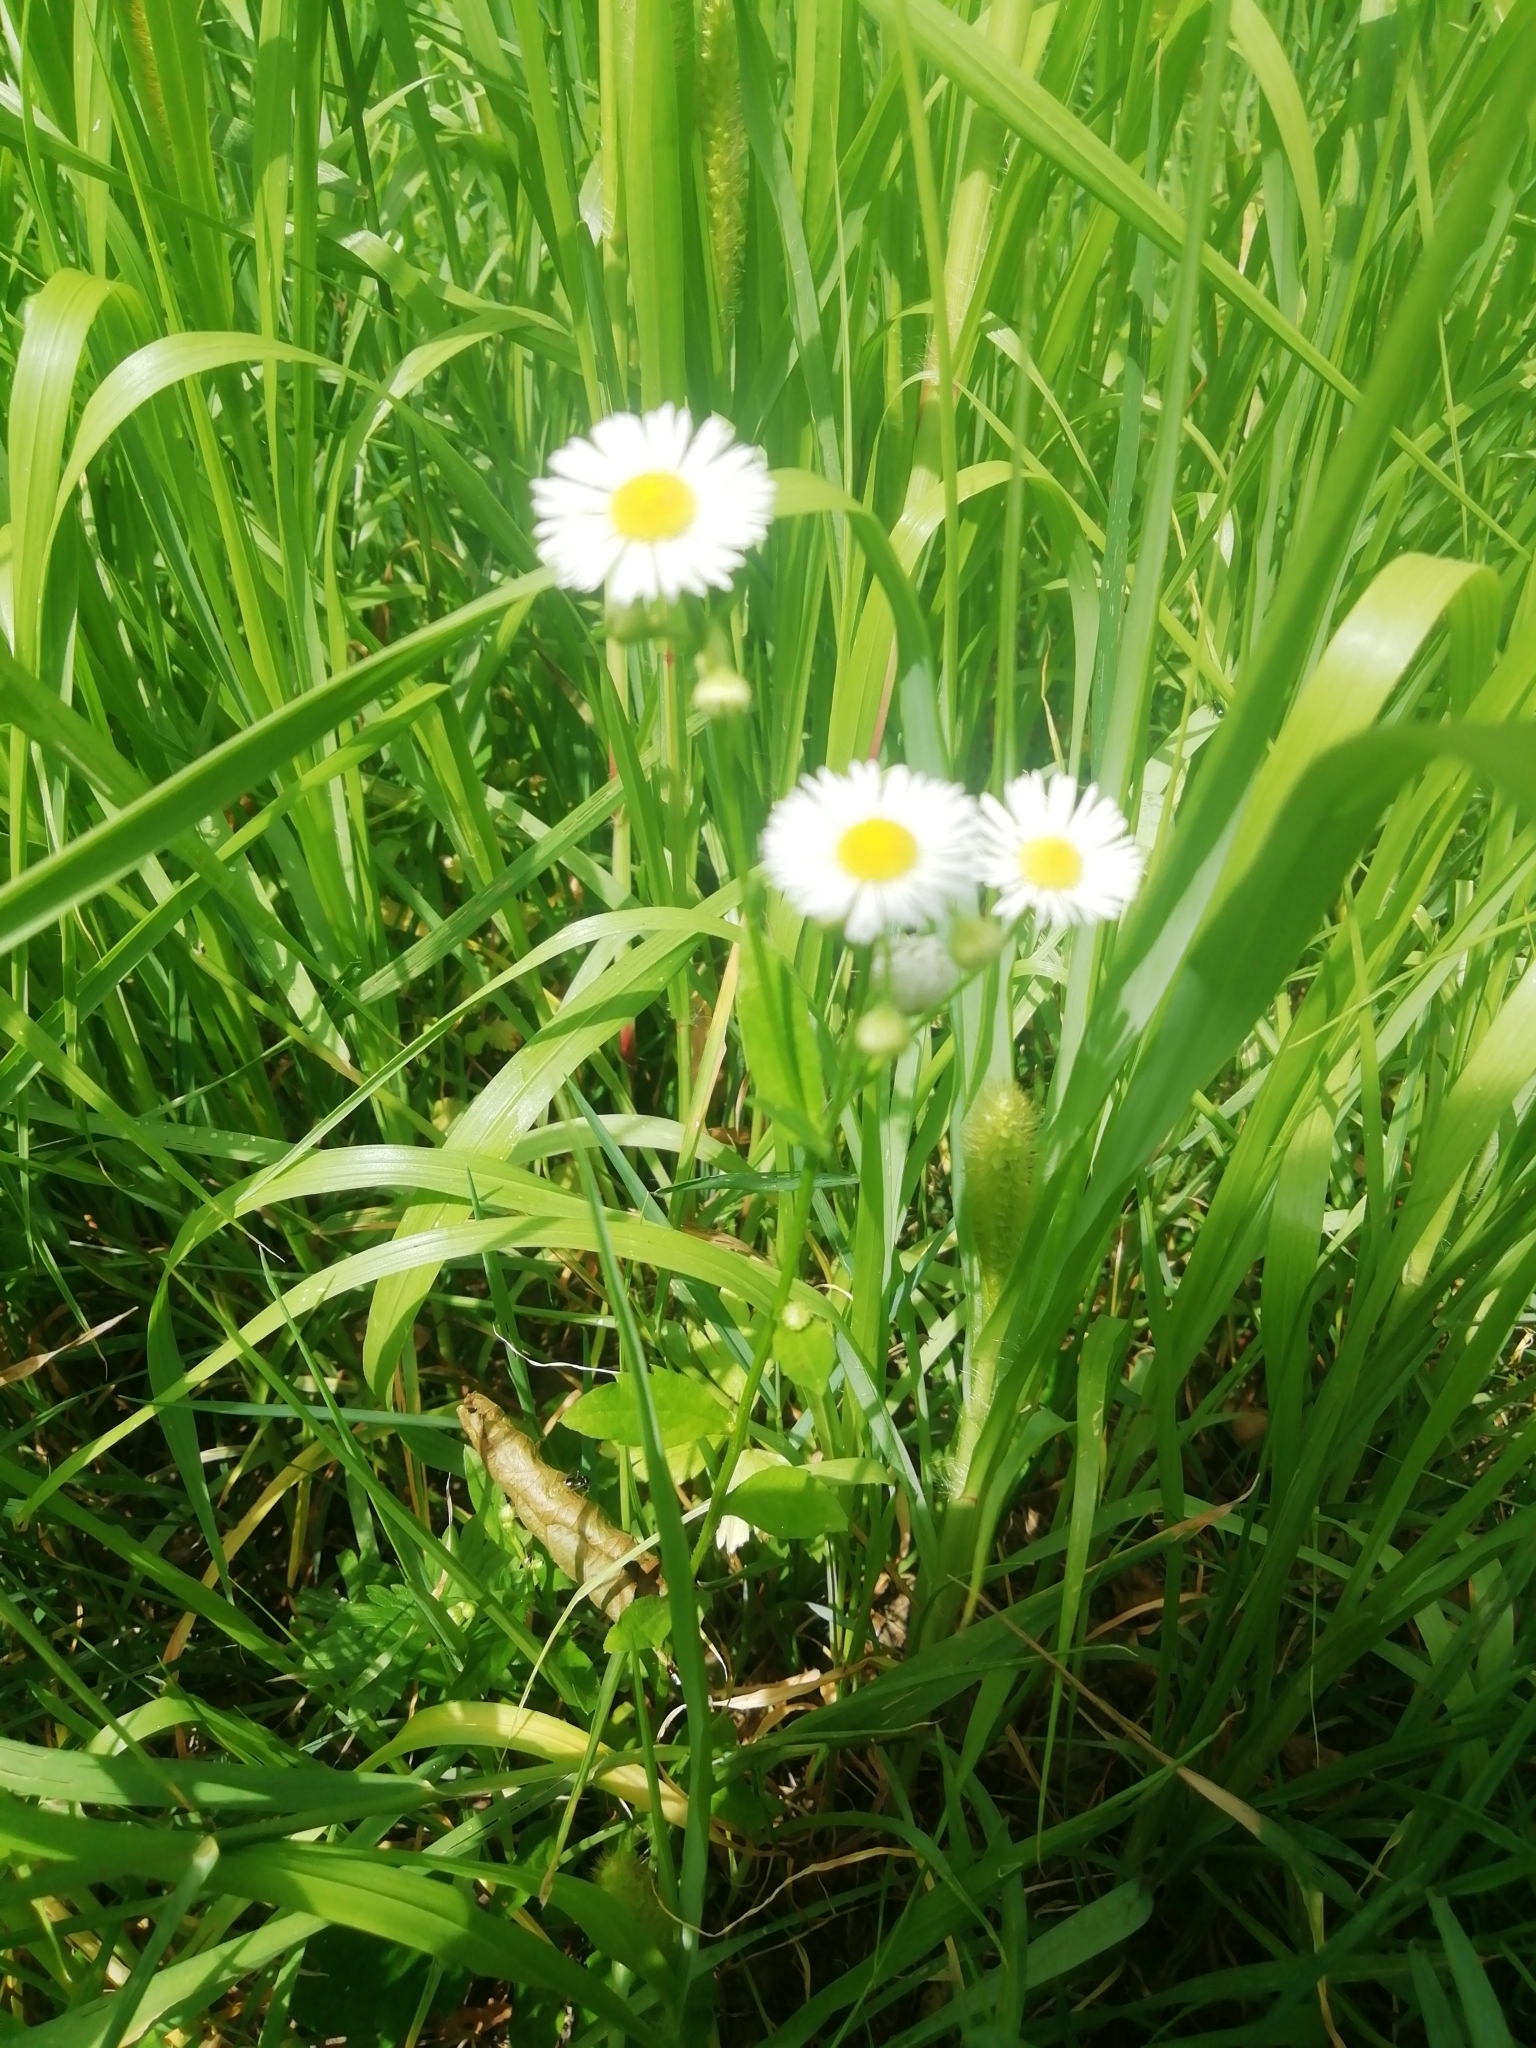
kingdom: Plantae
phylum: Tracheophyta
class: Magnoliopsida
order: Asterales
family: Asteraceae
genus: Erigeron
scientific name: Erigeron annuus
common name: Tall fleabane
